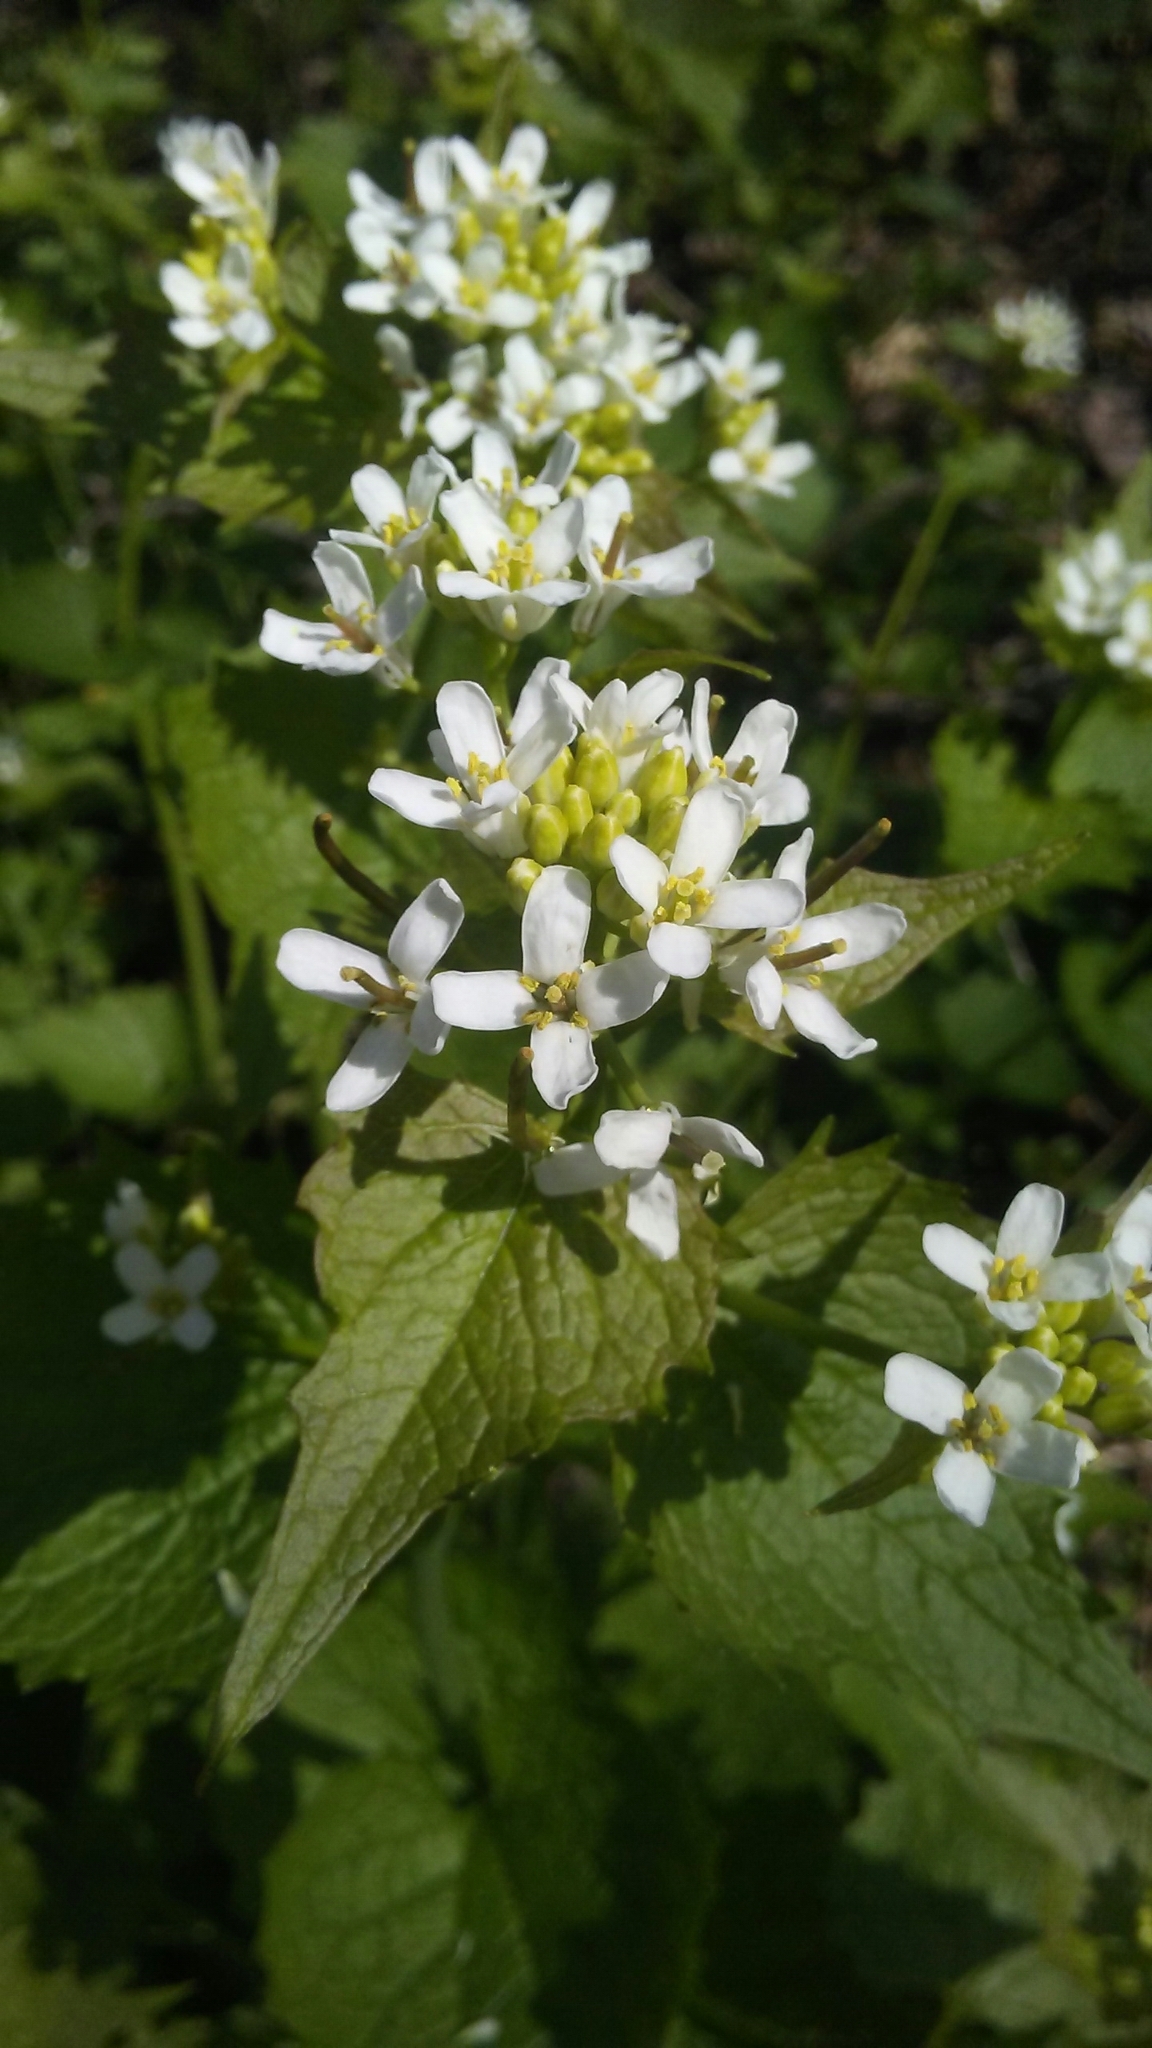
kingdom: Plantae
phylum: Tracheophyta
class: Magnoliopsida
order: Brassicales
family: Brassicaceae
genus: Alliaria
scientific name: Alliaria petiolata
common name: Garlic mustard
